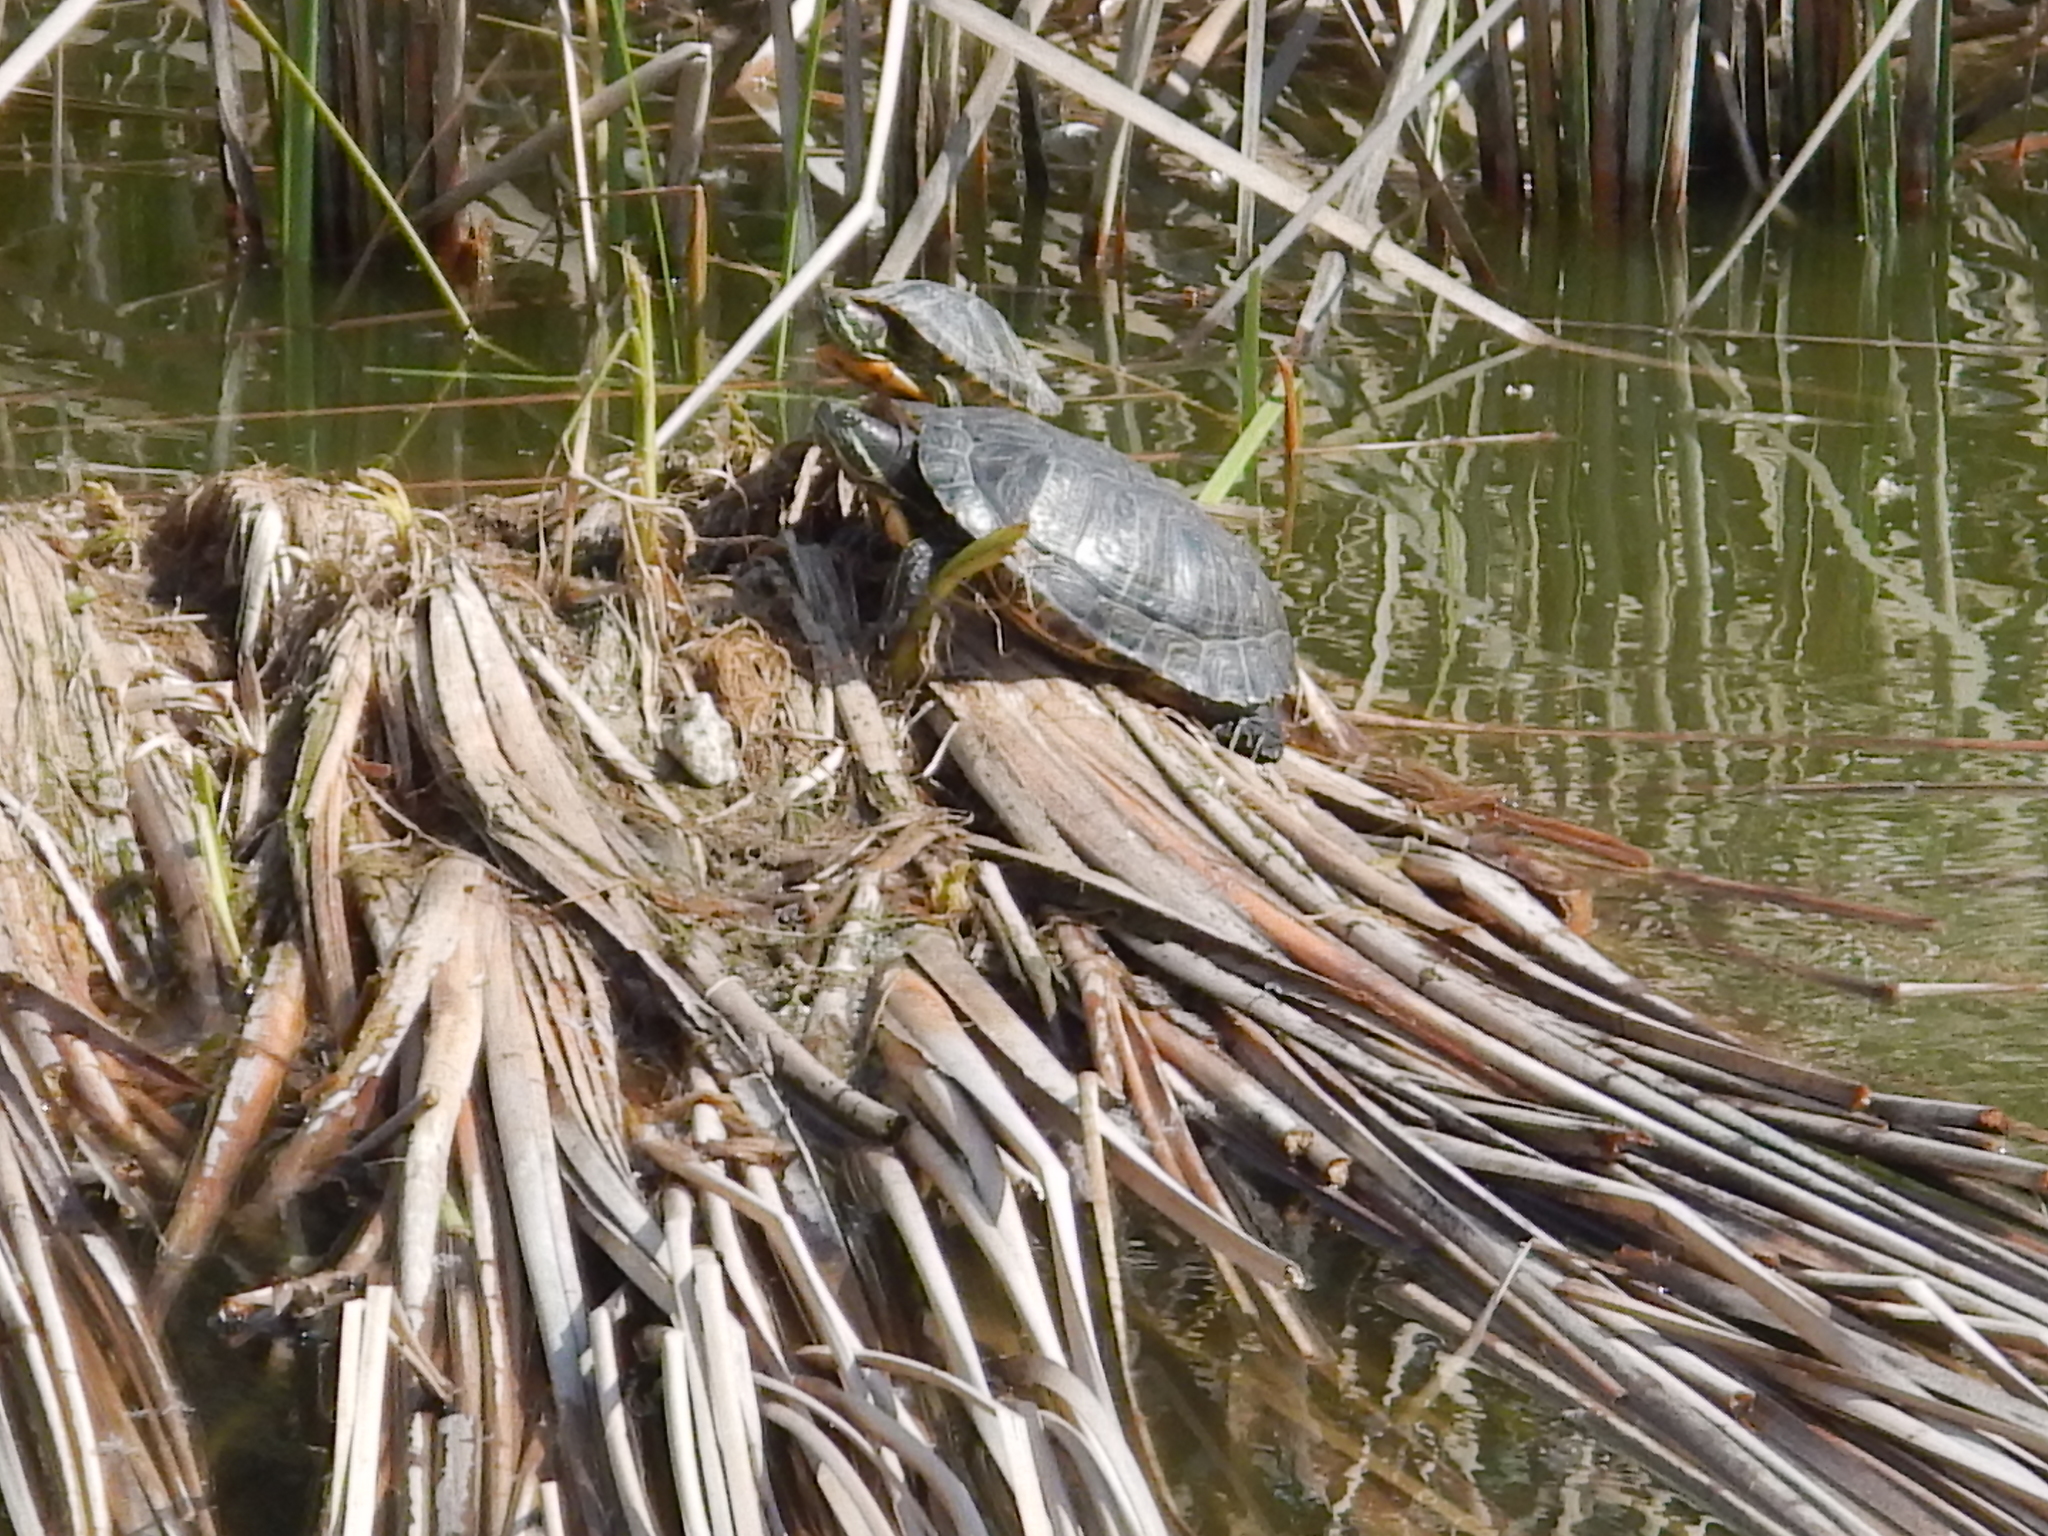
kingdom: Animalia
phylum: Chordata
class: Testudines
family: Emydidae
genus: Trachemys
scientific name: Trachemys scripta
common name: Slider
